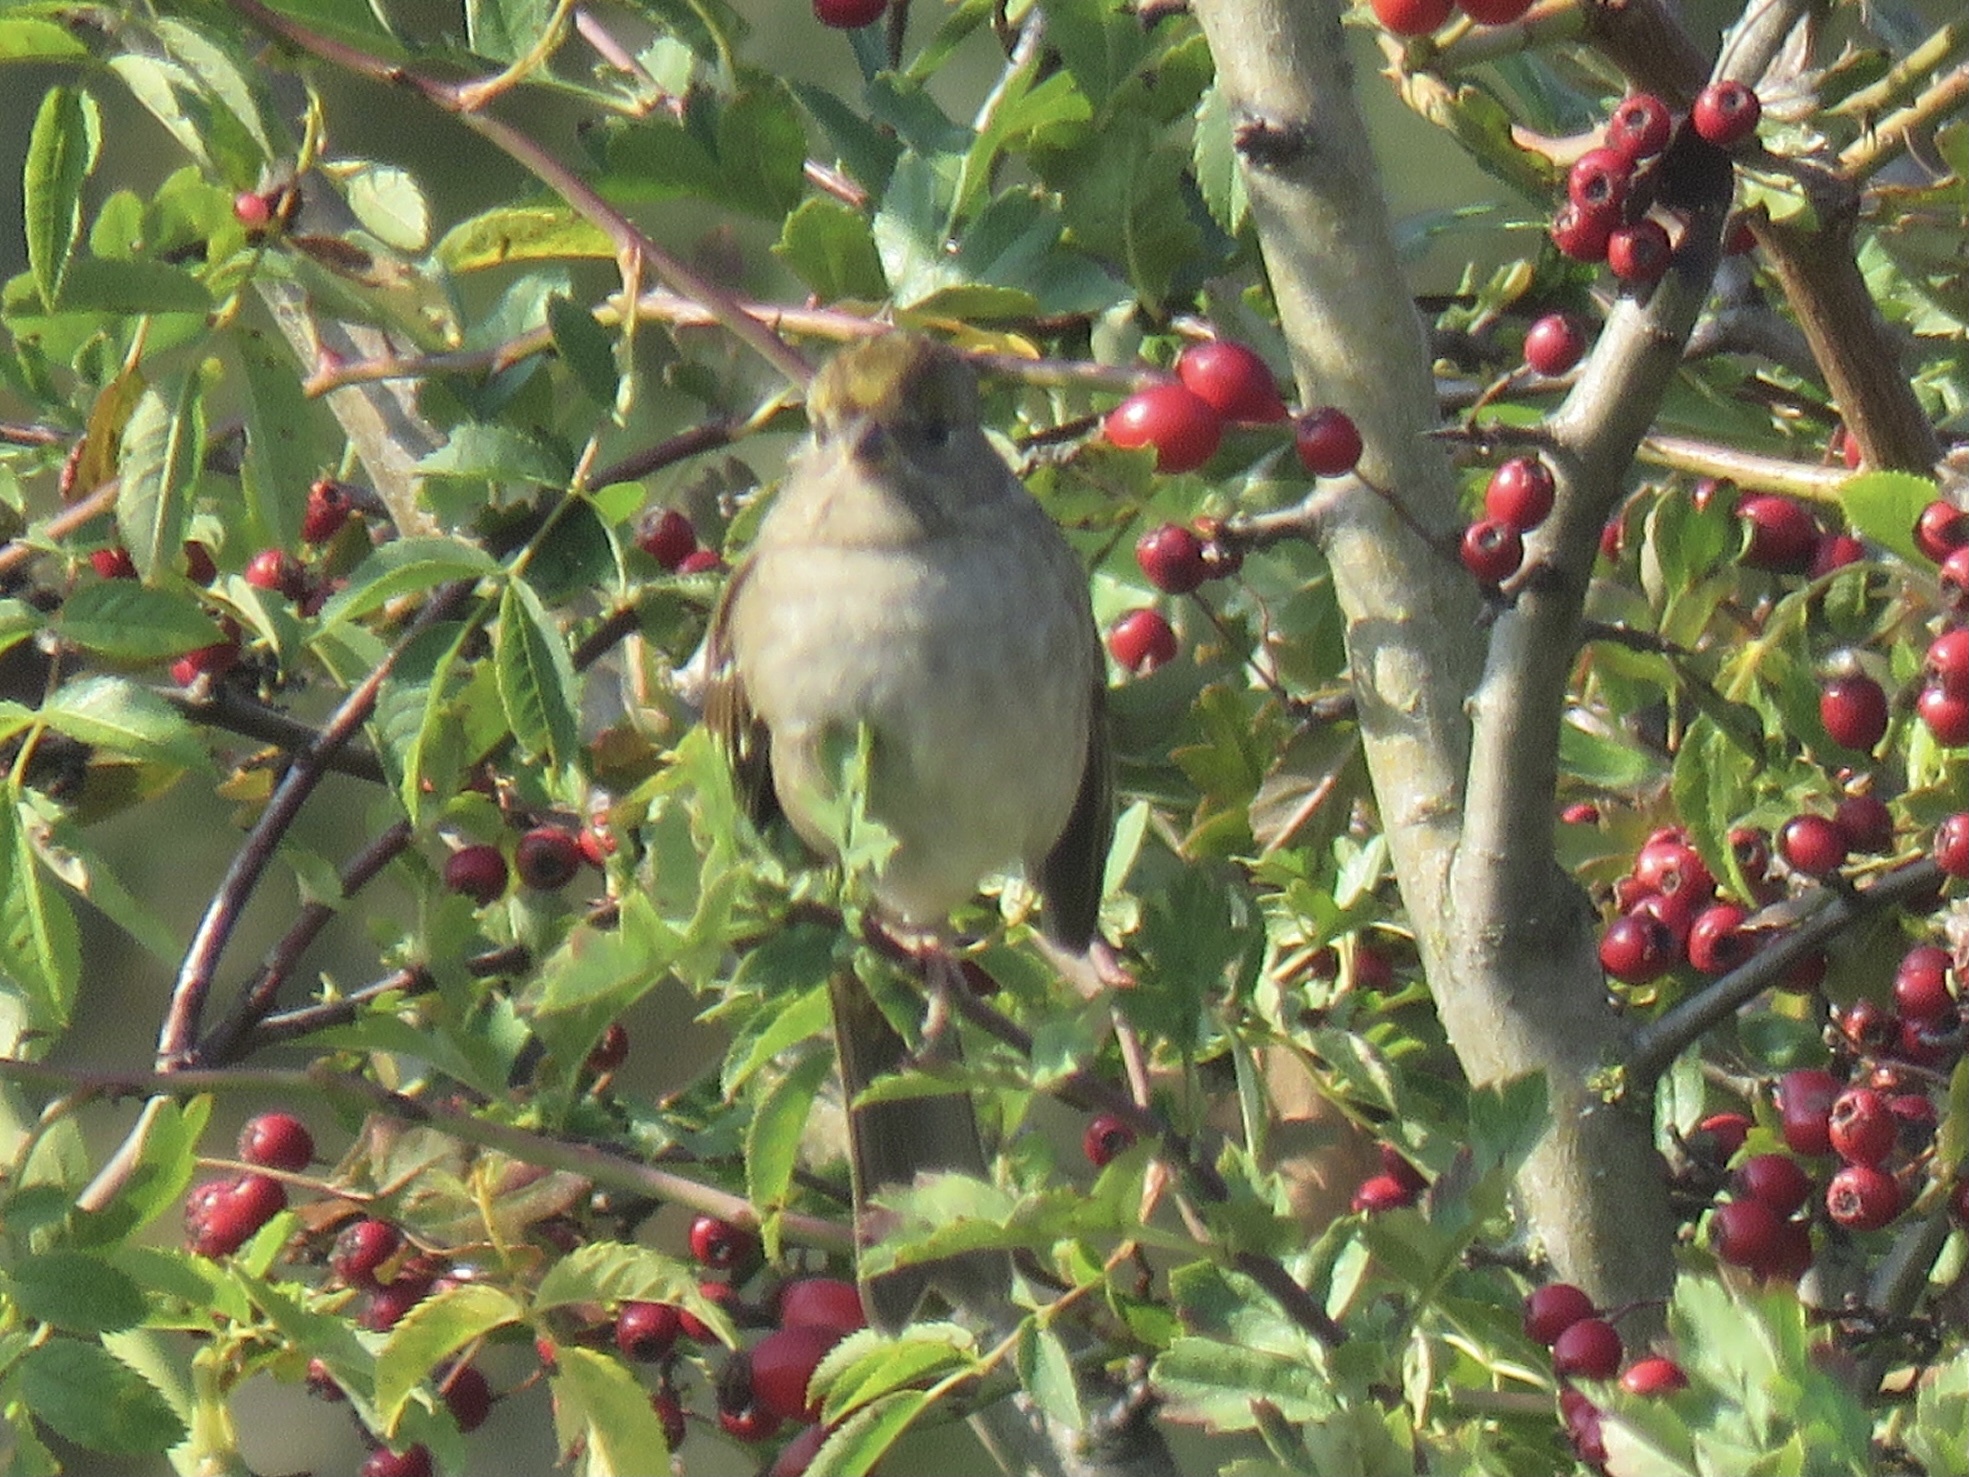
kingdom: Animalia
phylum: Chordata
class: Aves
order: Passeriformes
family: Passerellidae
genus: Zonotrichia
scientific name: Zonotrichia atricapilla
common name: Golden-crowned sparrow
